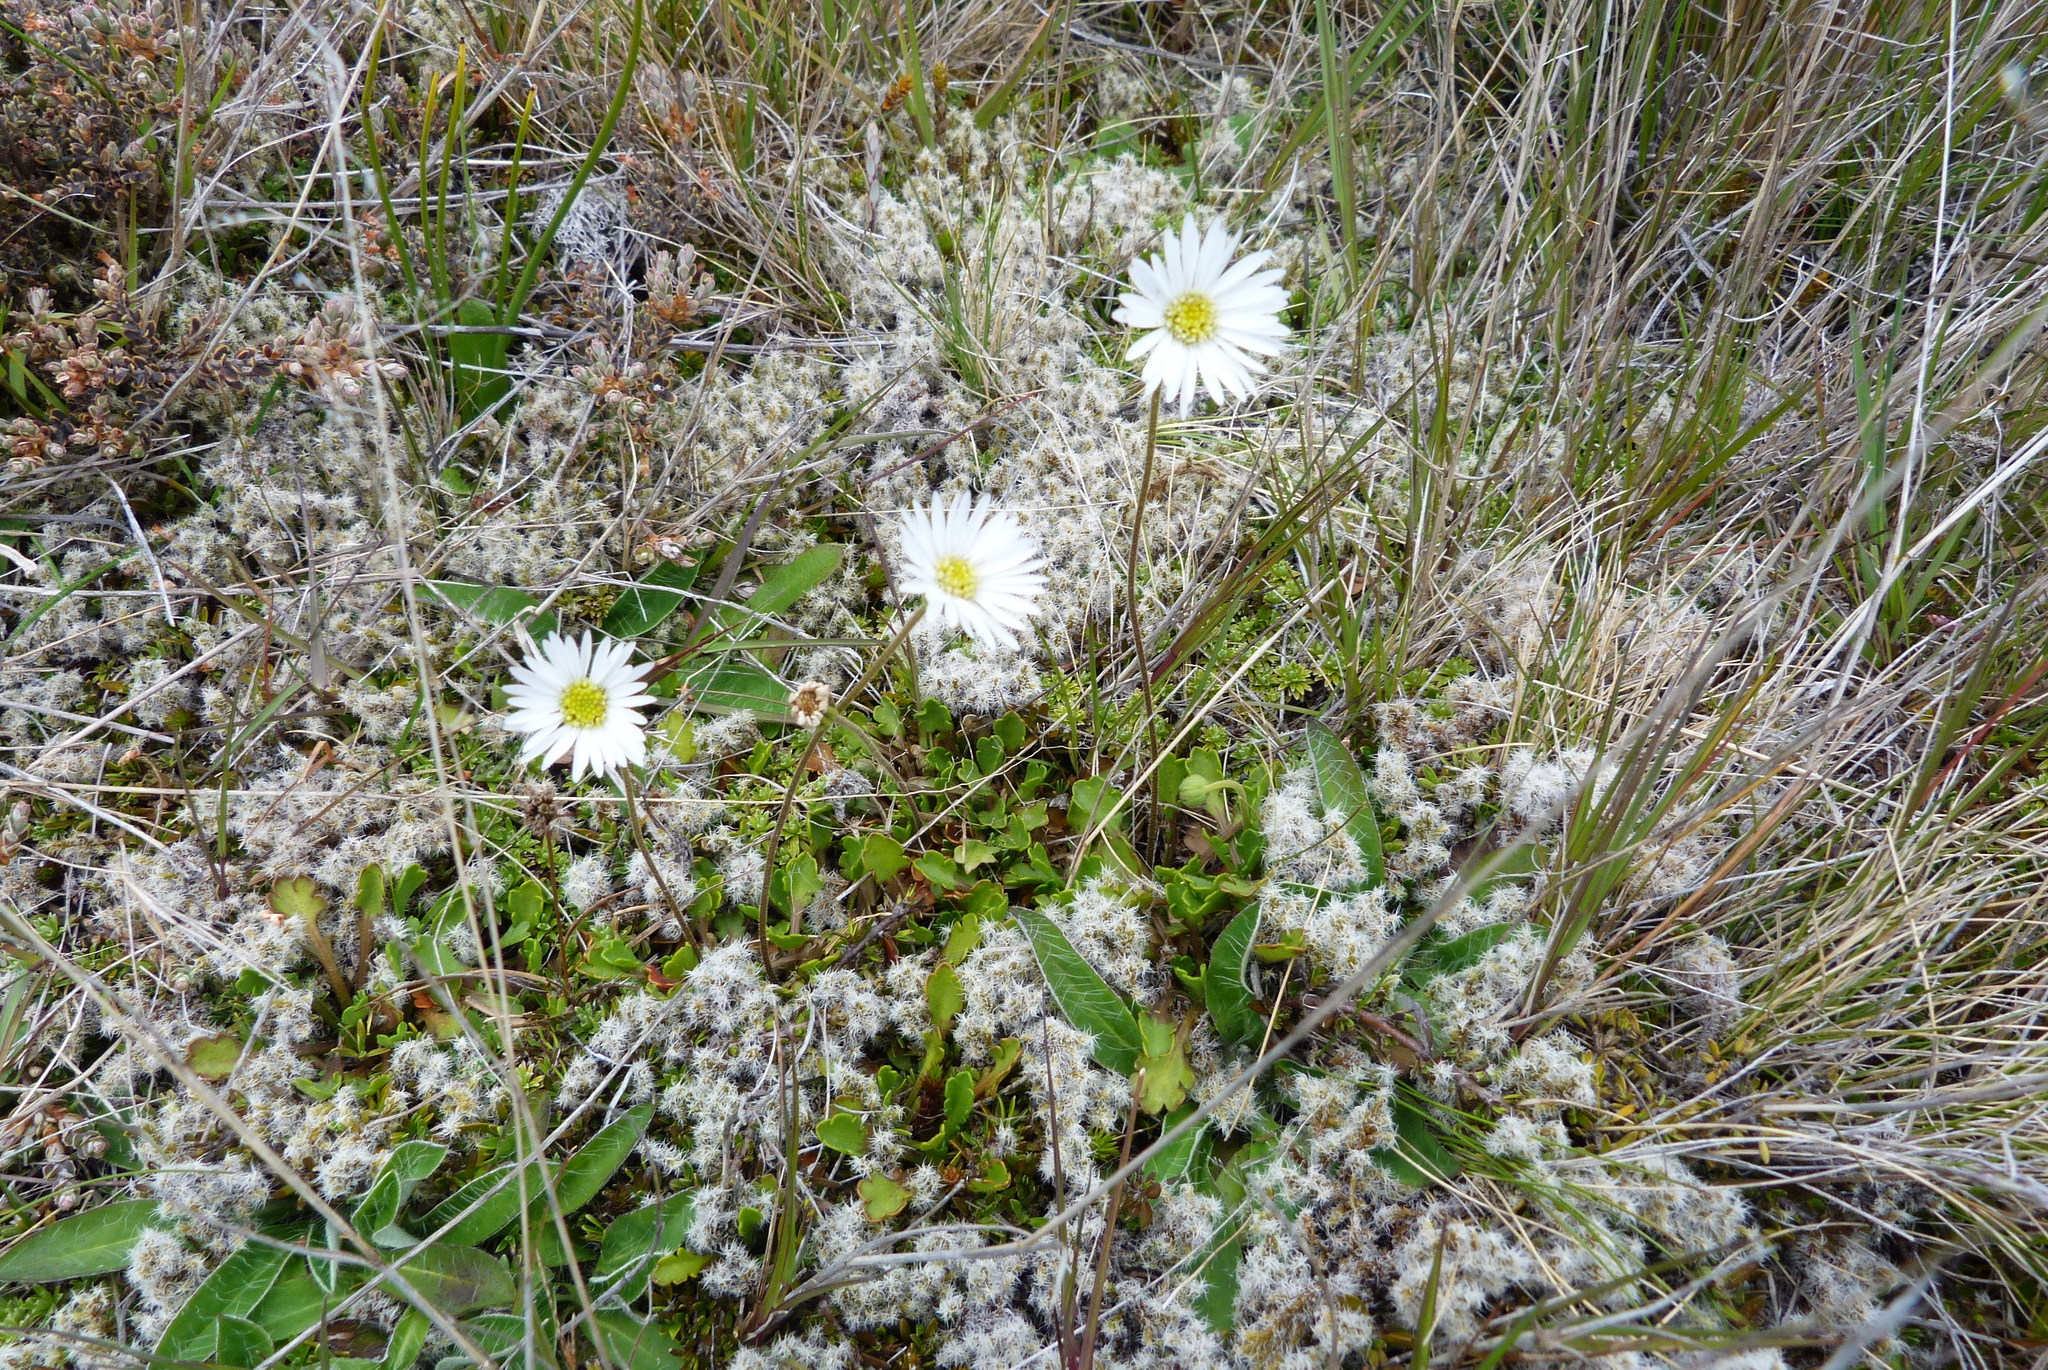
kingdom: Plantae
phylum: Tracheophyta
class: Magnoliopsida
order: Asterales
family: Asteraceae
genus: Brachyscome
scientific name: Brachyscome sinclairii
